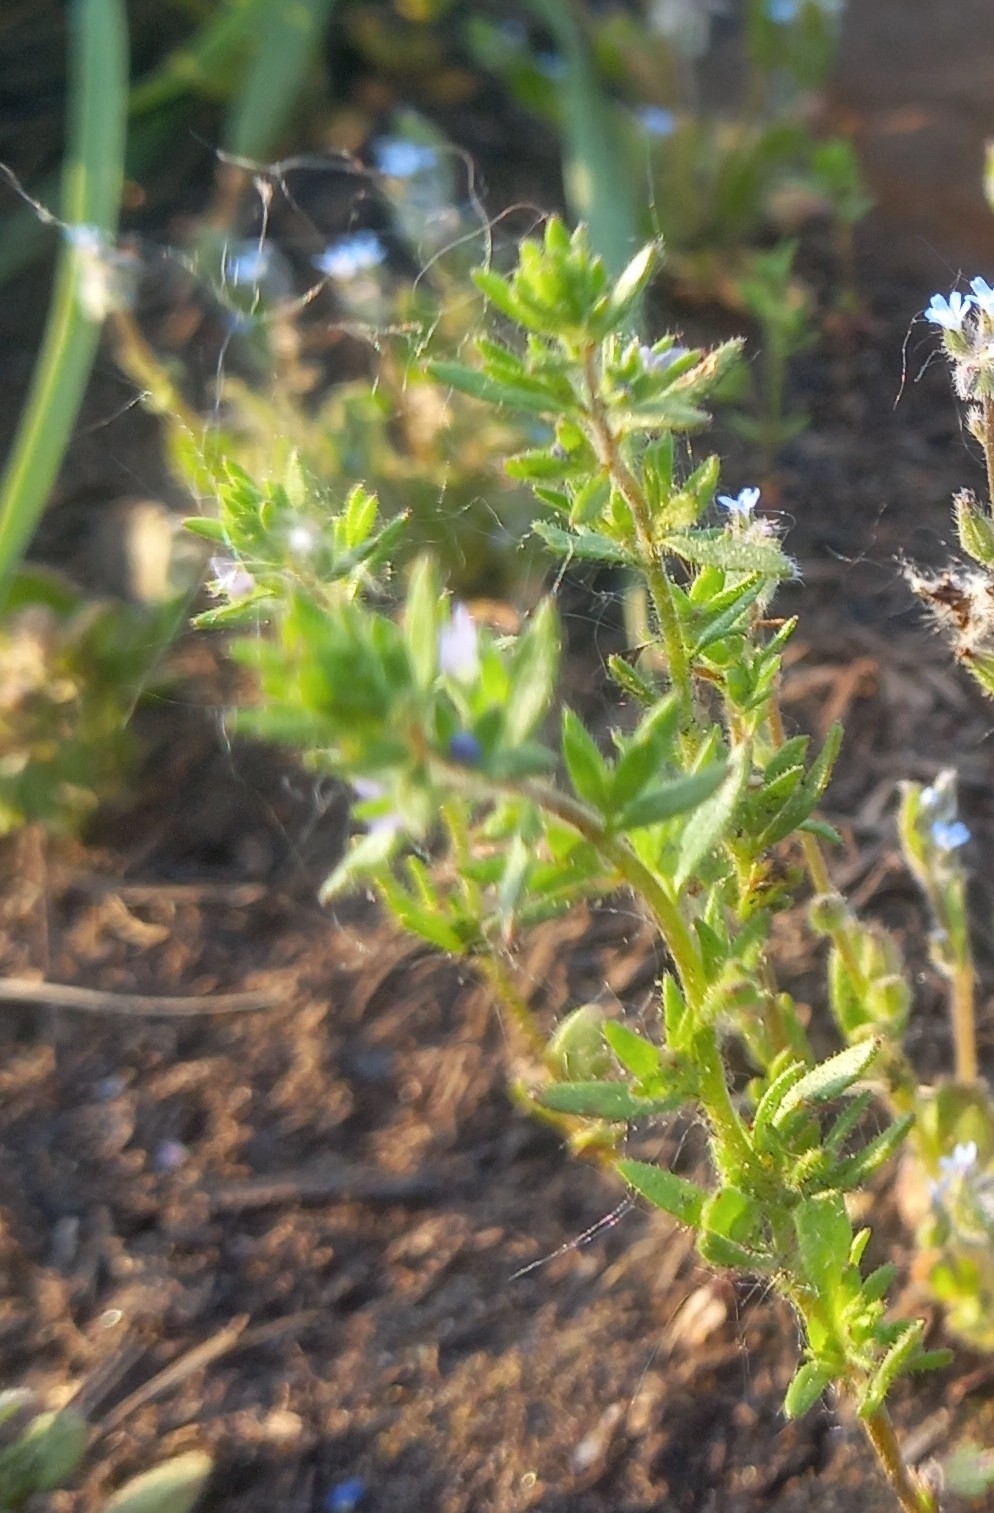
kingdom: Plantae
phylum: Tracheophyta
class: Magnoliopsida
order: Lamiales
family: Plantaginaceae
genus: Veronica
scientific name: Veronica verna
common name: Spring speedwell
